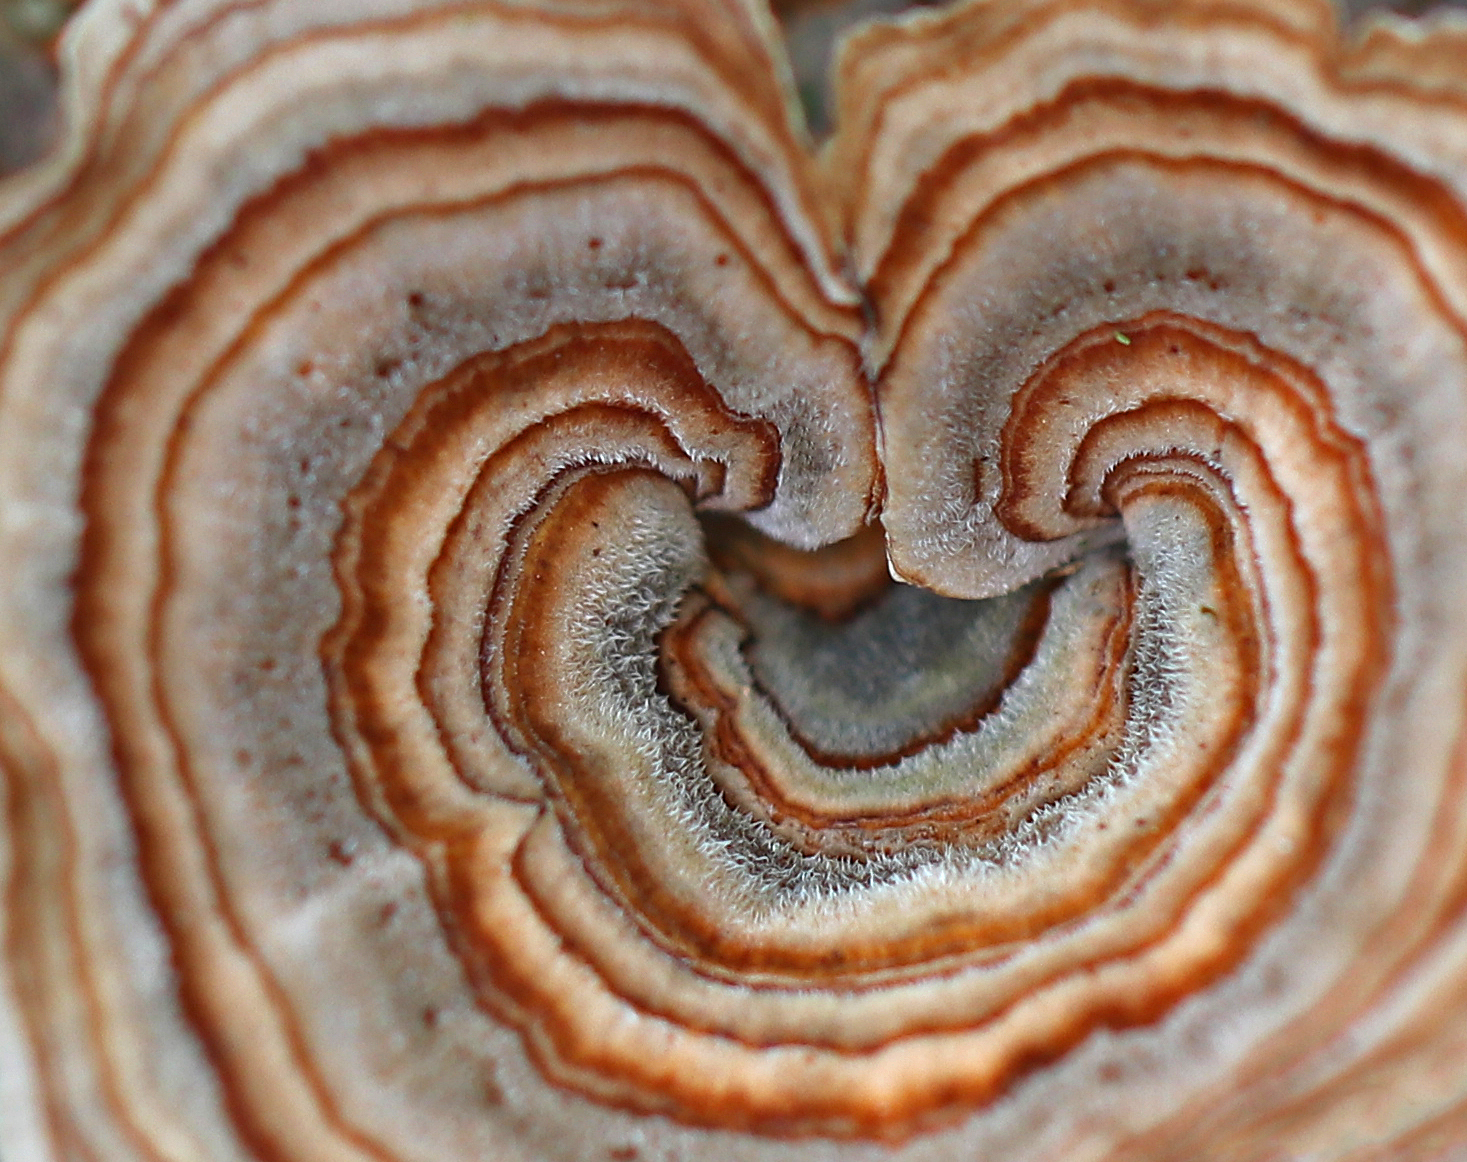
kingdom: Fungi
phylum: Basidiomycota
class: Agaricomycetes
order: Polyporales
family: Polyporaceae
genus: Trametes
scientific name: Trametes versicolor
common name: Turkeytail
